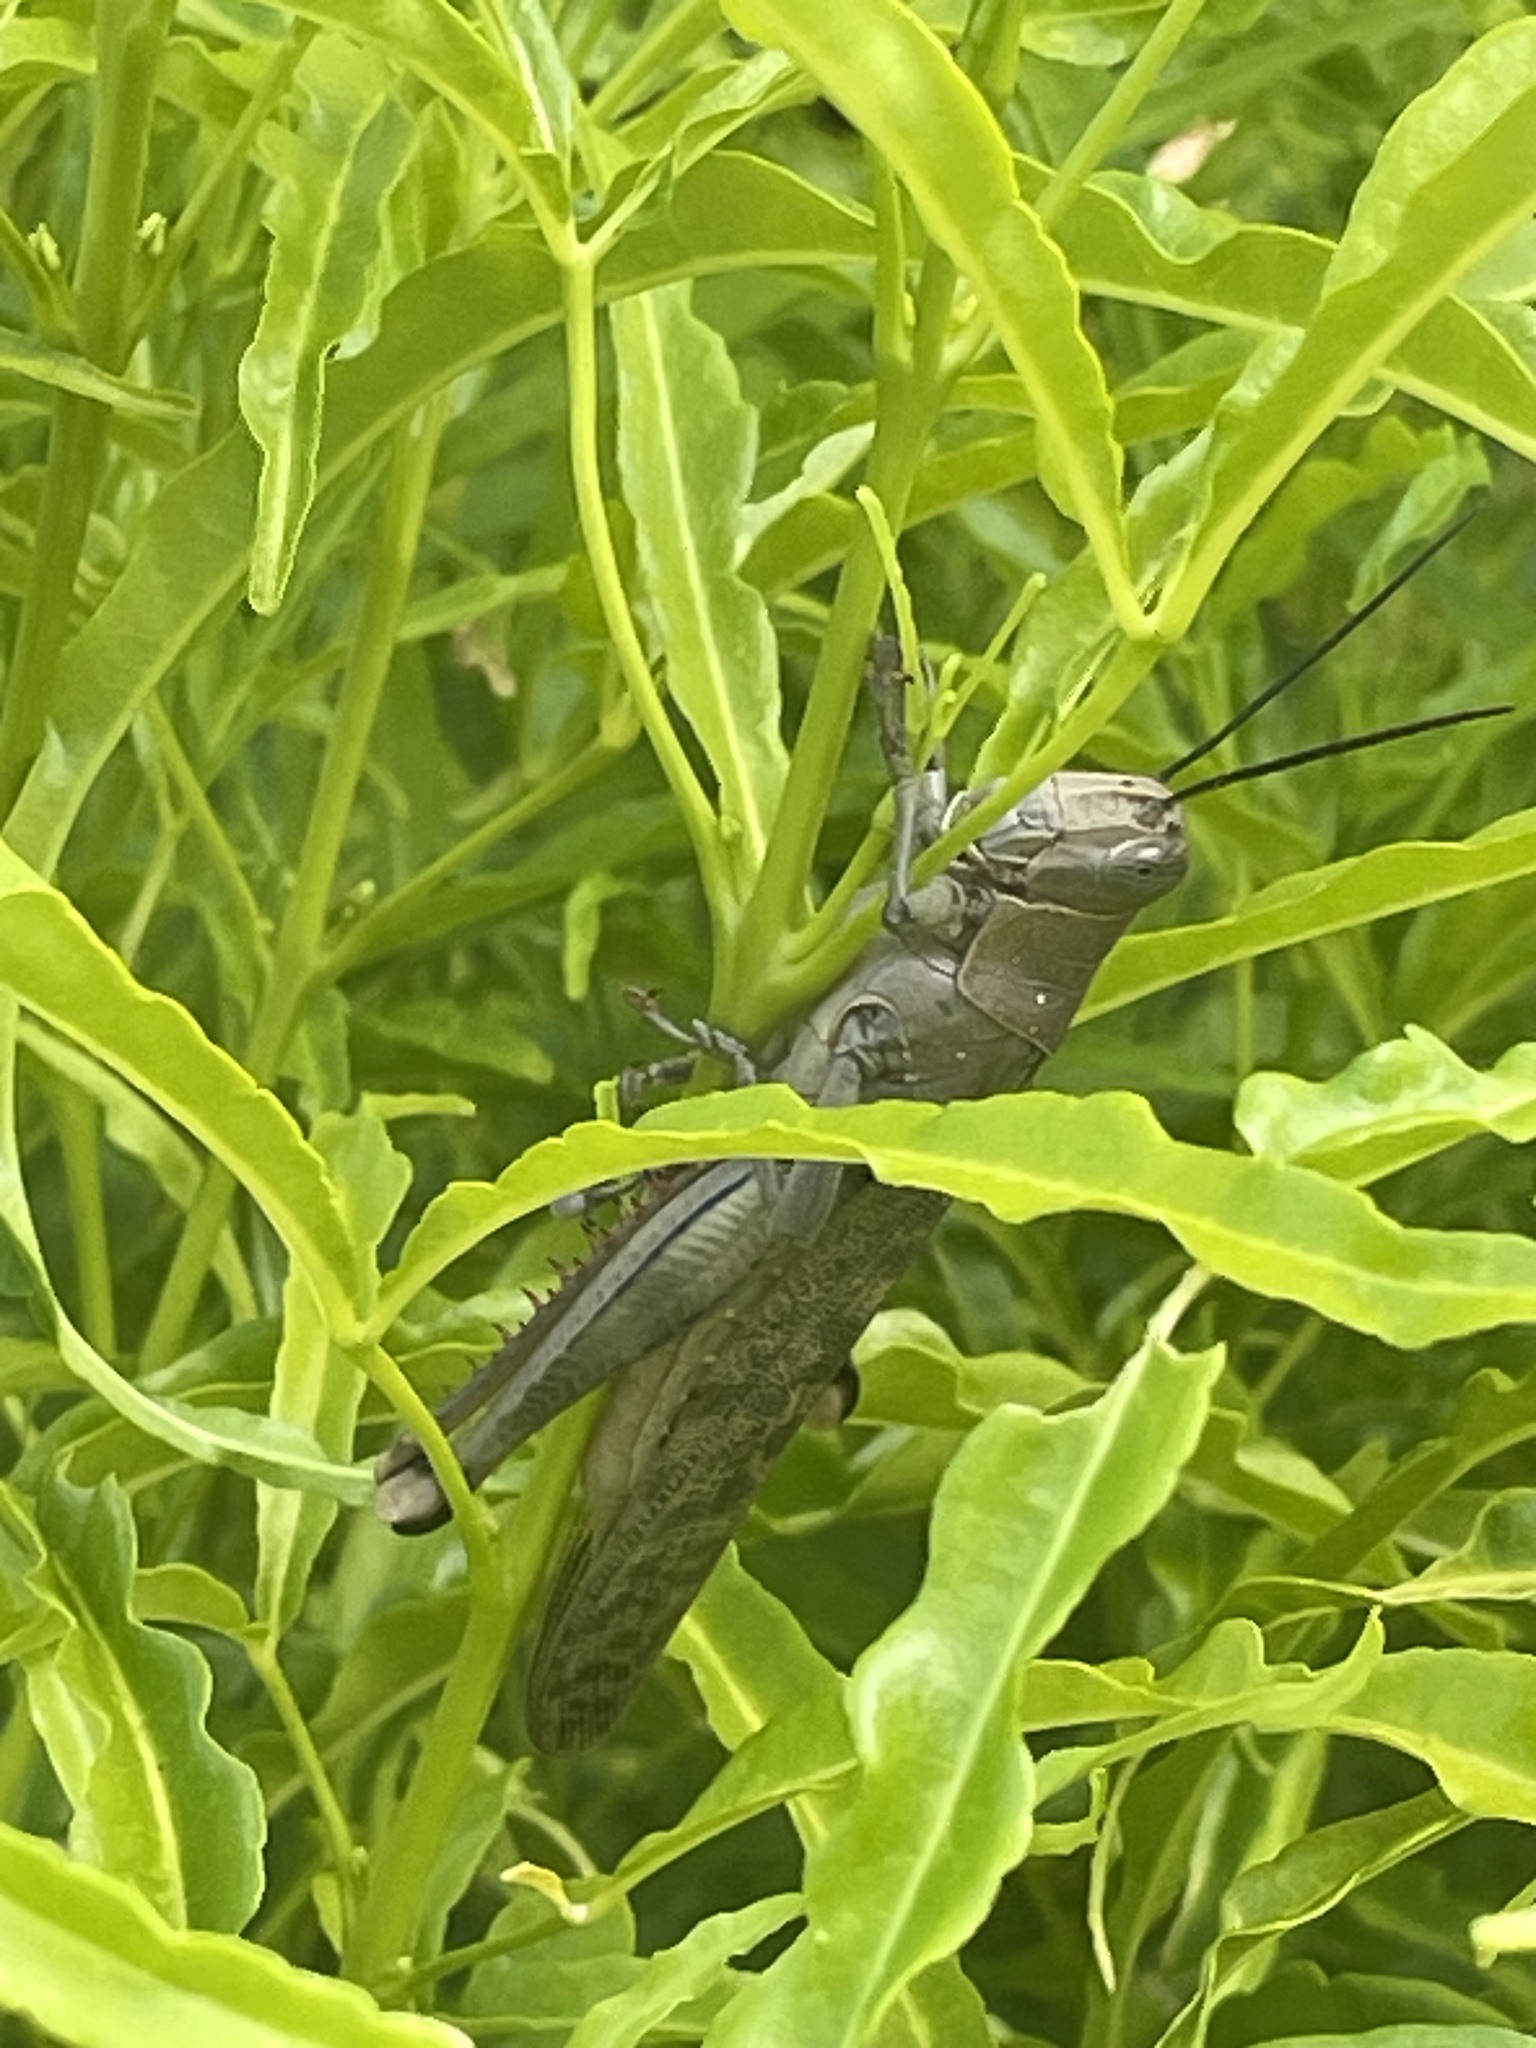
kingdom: Animalia
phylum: Arthropoda
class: Insecta
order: Orthoptera
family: Acrididae
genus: Valanga
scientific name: Valanga irregularis
